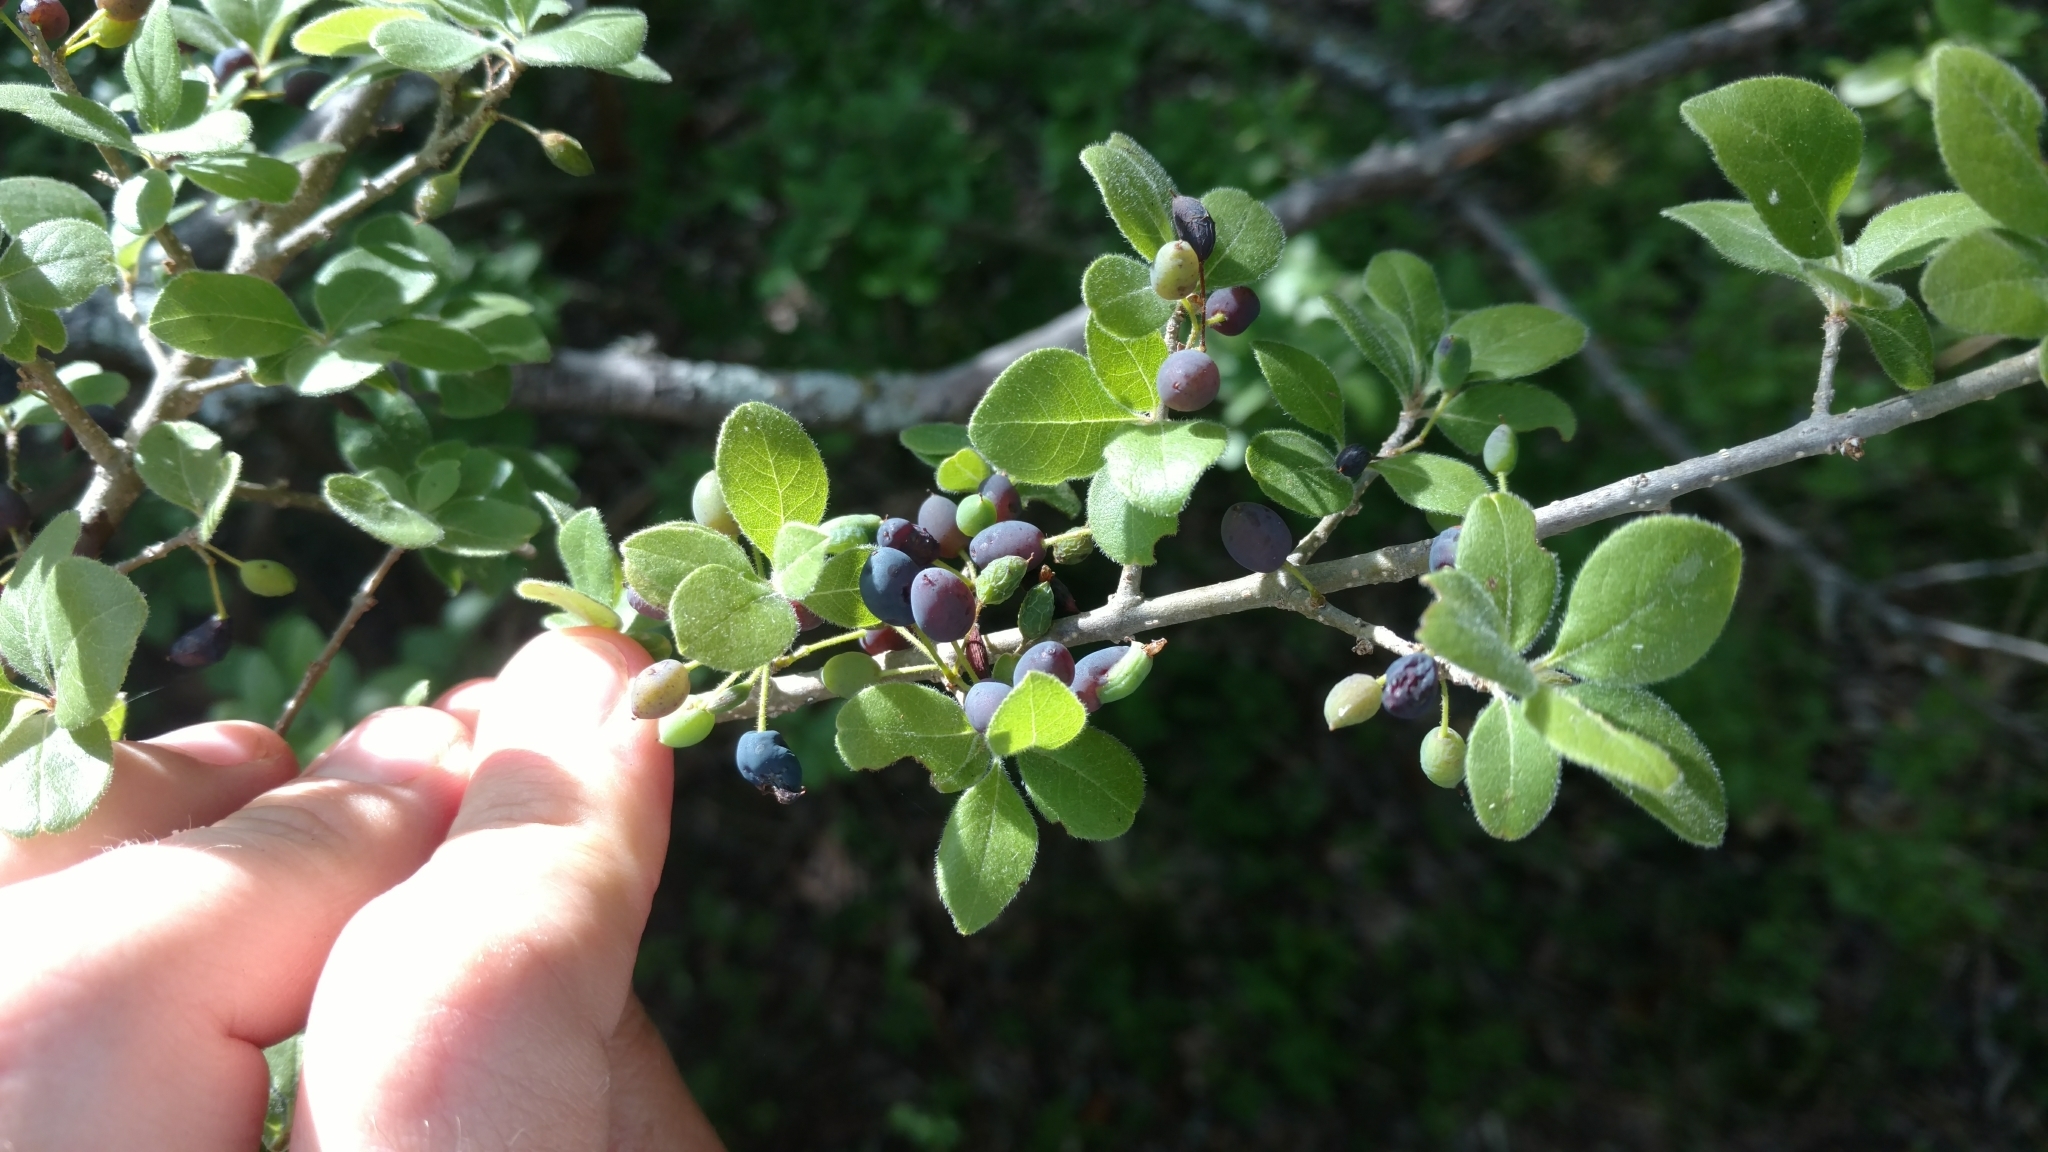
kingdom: Plantae
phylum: Tracheophyta
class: Magnoliopsida
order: Lamiales
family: Oleaceae
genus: Forestiera
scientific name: Forestiera pubescens
